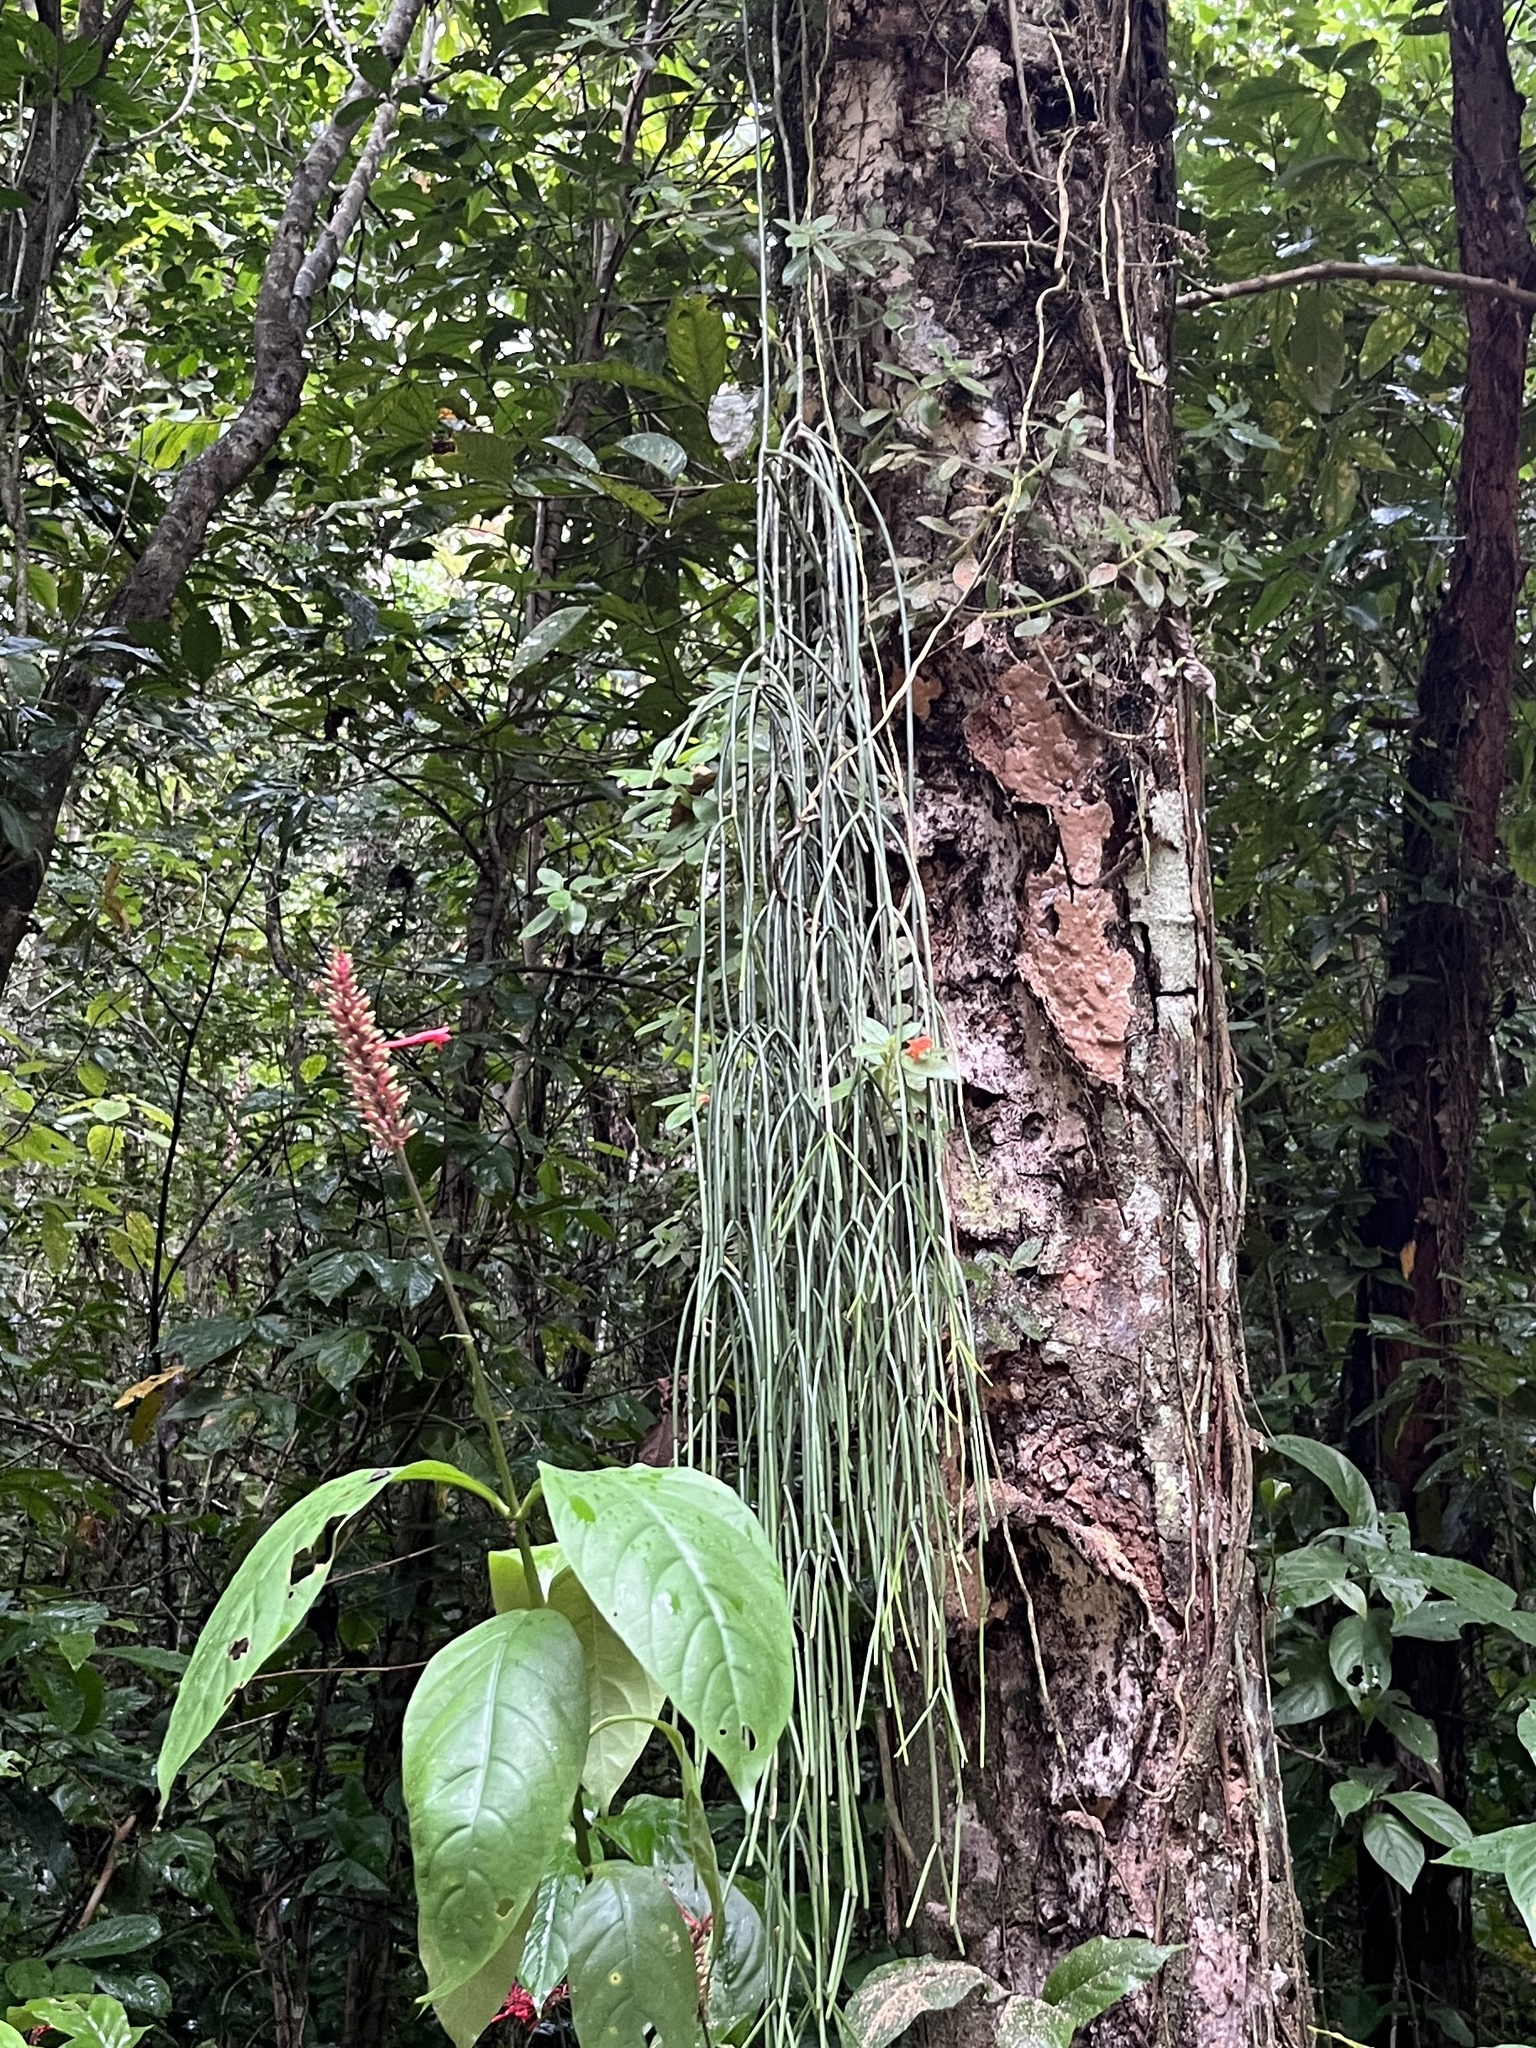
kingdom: Plantae
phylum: Tracheophyta
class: Magnoliopsida
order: Caryophyllales
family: Cactaceae
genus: Rhipsalis
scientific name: Rhipsalis baccifera
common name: Mistletoe cactus
